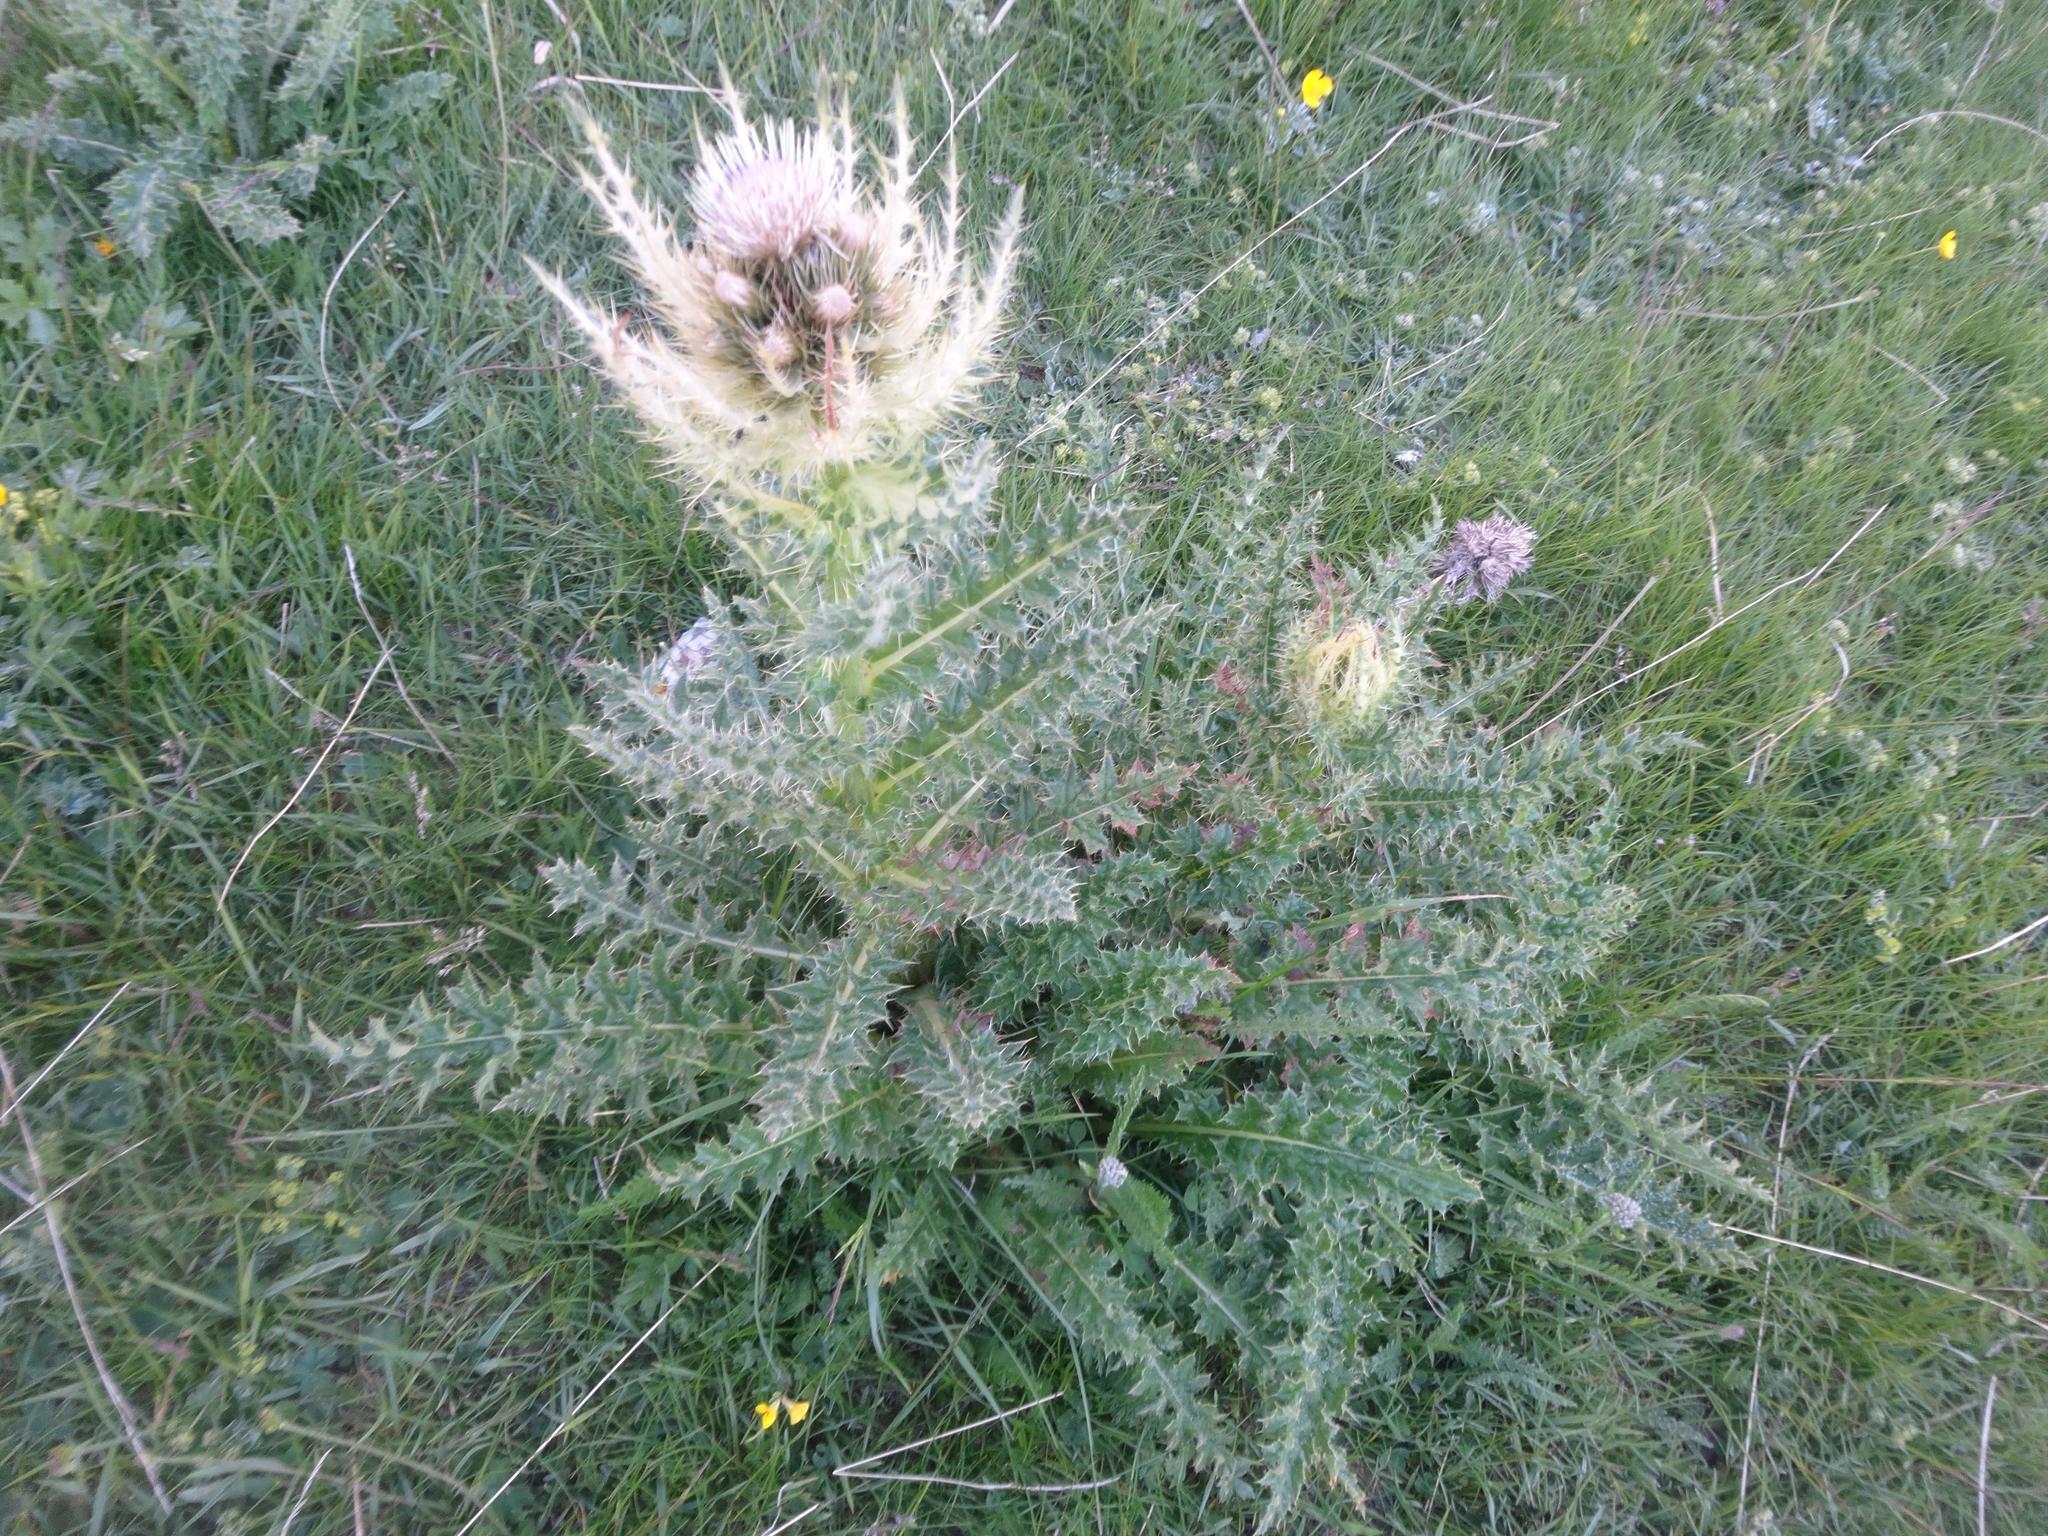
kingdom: Plantae
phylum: Tracheophyta
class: Magnoliopsida
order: Asterales
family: Asteraceae
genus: Cirsium
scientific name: Cirsium spinosissimum
